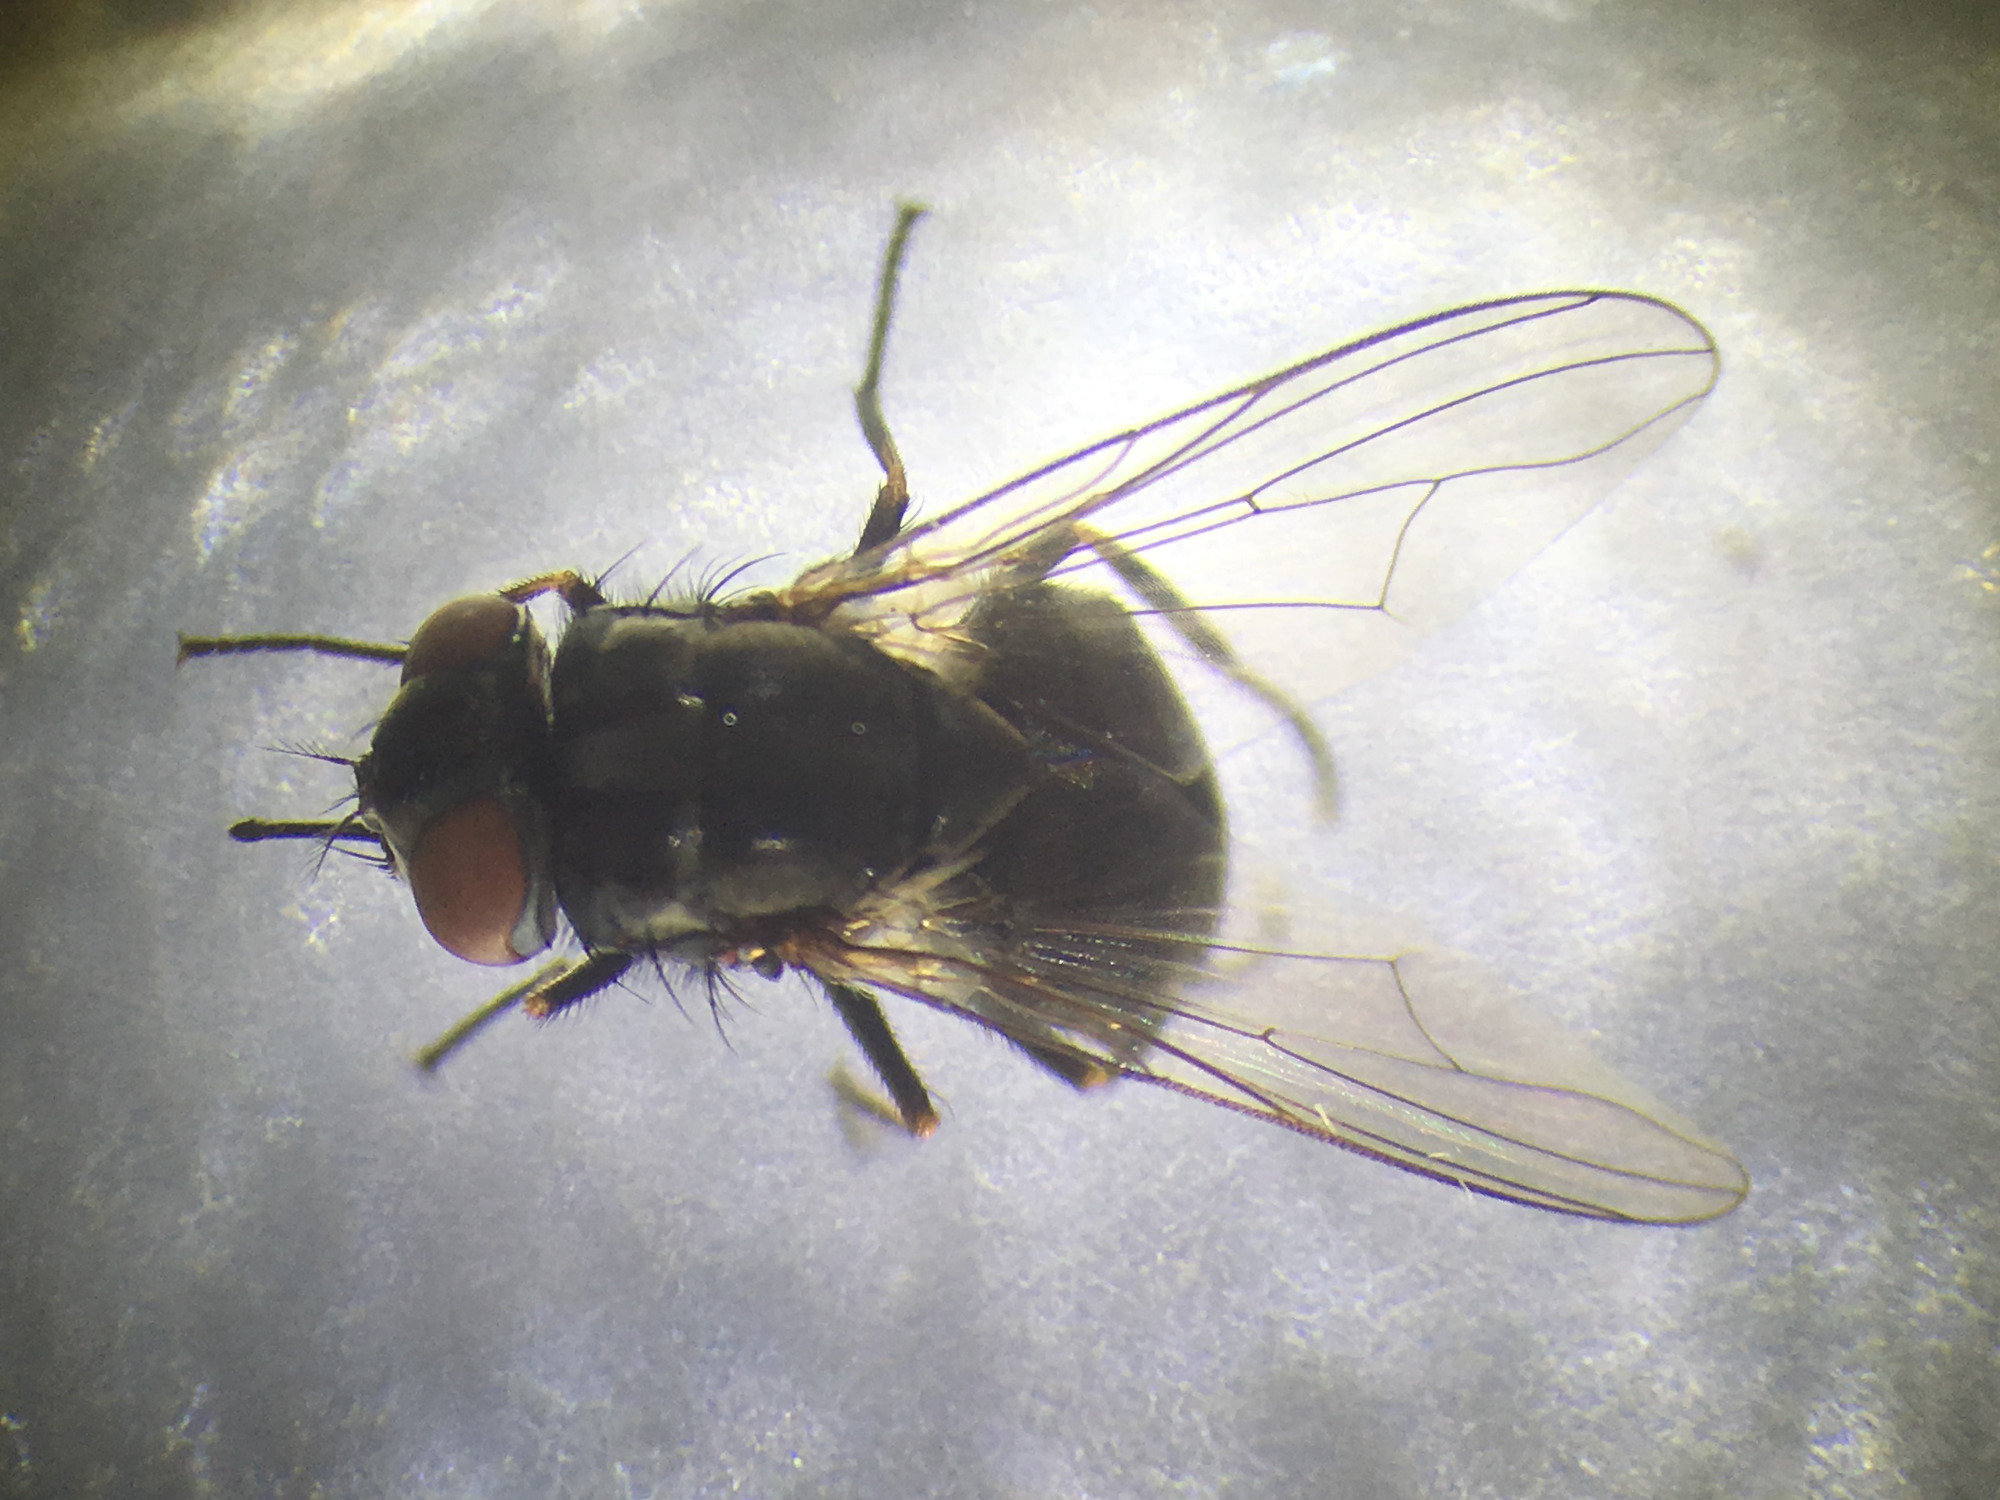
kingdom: Animalia
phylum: Arthropoda
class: Insecta
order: Diptera
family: Muscidae
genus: Stomoxys
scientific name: Stomoxys calcitrans
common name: Stable fly
